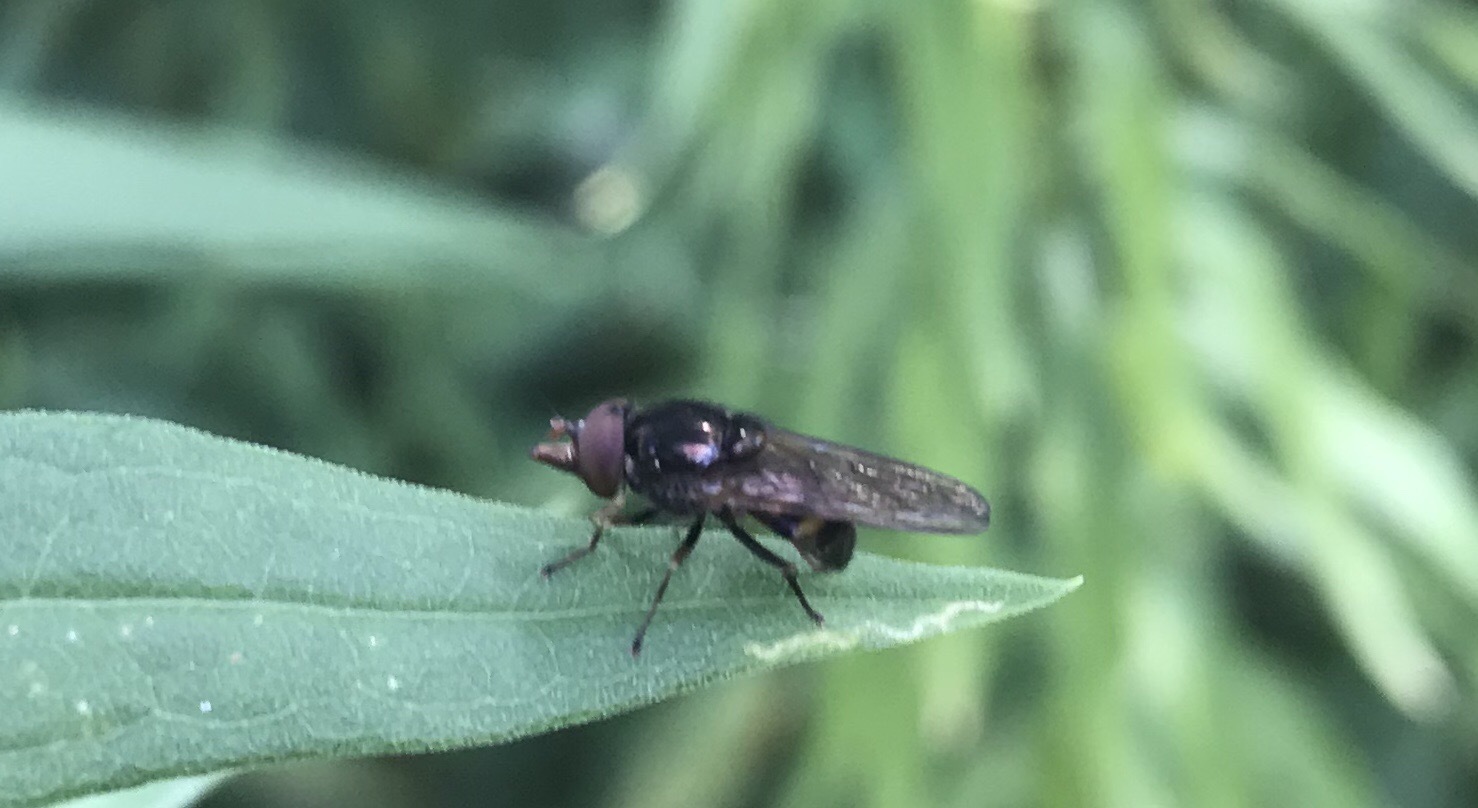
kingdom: Animalia
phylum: Arthropoda
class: Insecta
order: Diptera
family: Syrphidae
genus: Rhingia
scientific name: Rhingia nasica
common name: American snout fly
